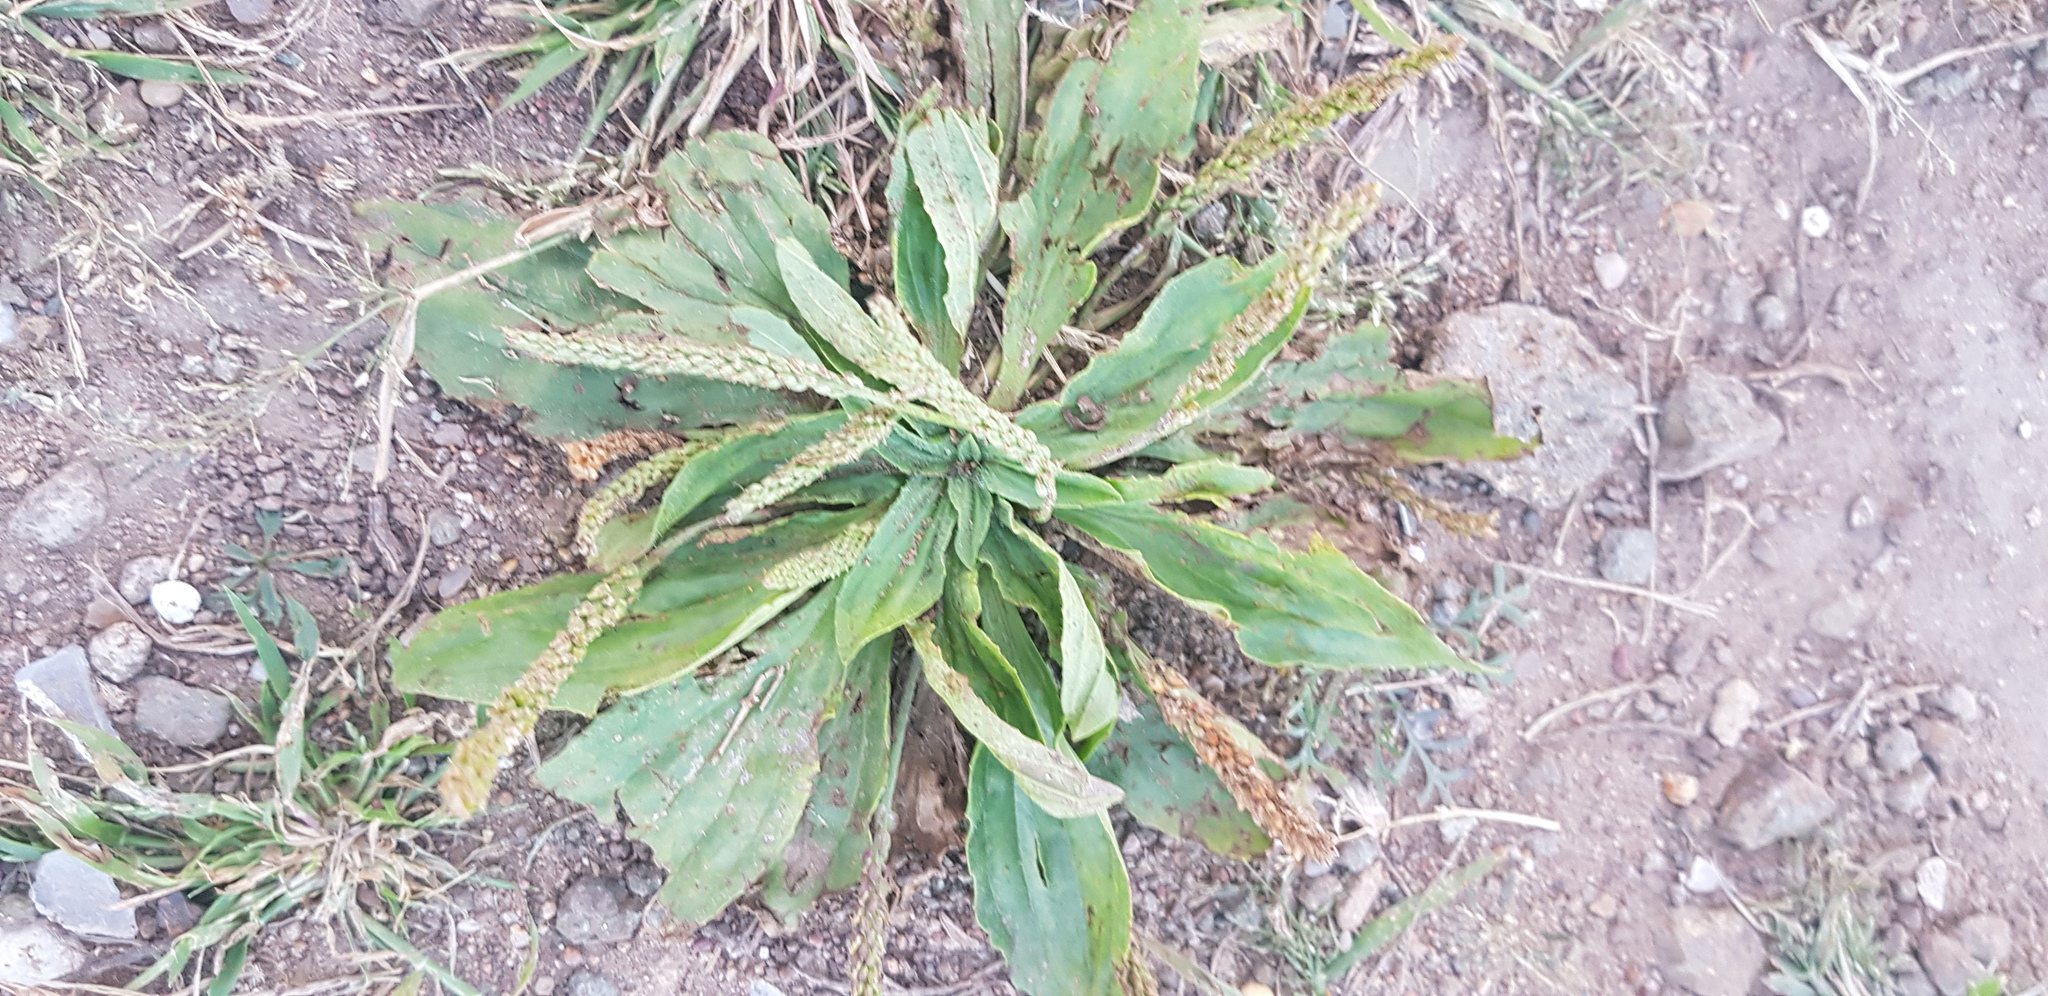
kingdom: Plantae
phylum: Tracheophyta
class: Magnoliopsida
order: Lamiales
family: Plantaginaceae
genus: Plantago
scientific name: Plantago depressa
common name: Depressed plantain
